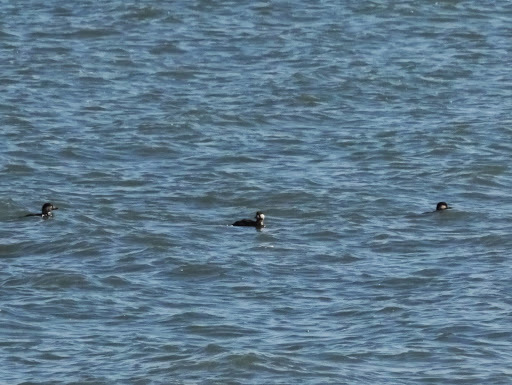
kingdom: Animalia
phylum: Chordata
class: Aves
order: Anseriformes
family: Anatidae
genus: Melanitta
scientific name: Melanitta americana
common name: Black scoter
